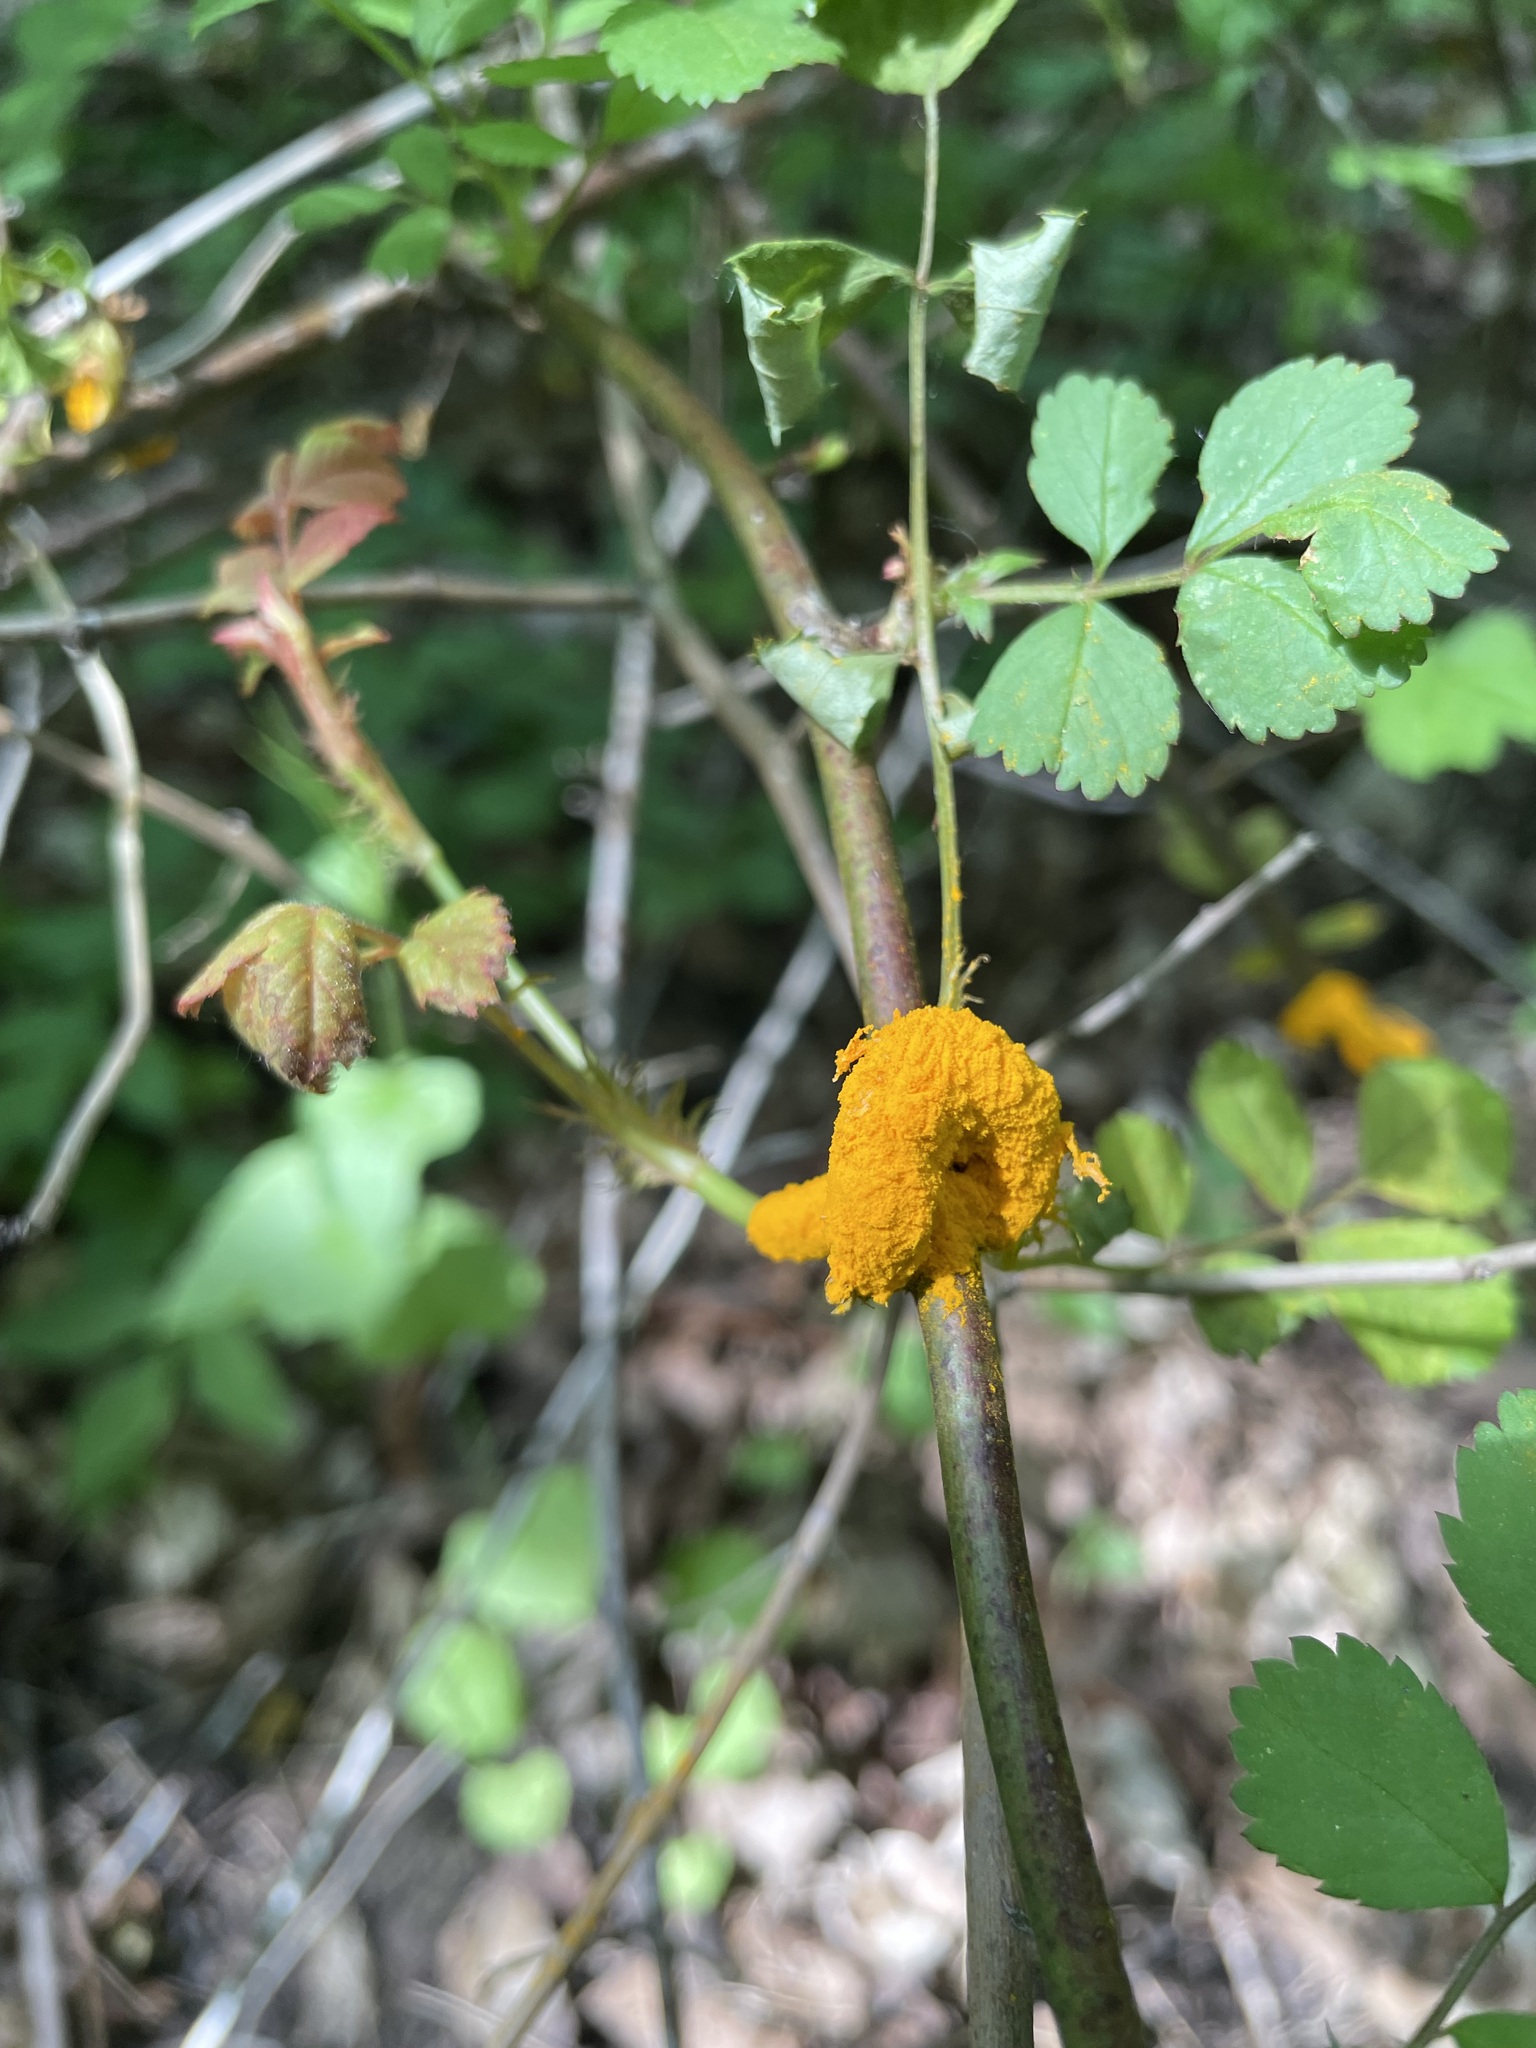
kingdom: Fungi
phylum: Basidiomycota
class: Pucciniomycetes
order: Pucciniales
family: Phragmidiaceae
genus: Phragmidium
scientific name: Phragmidium rosae-multiflorae
